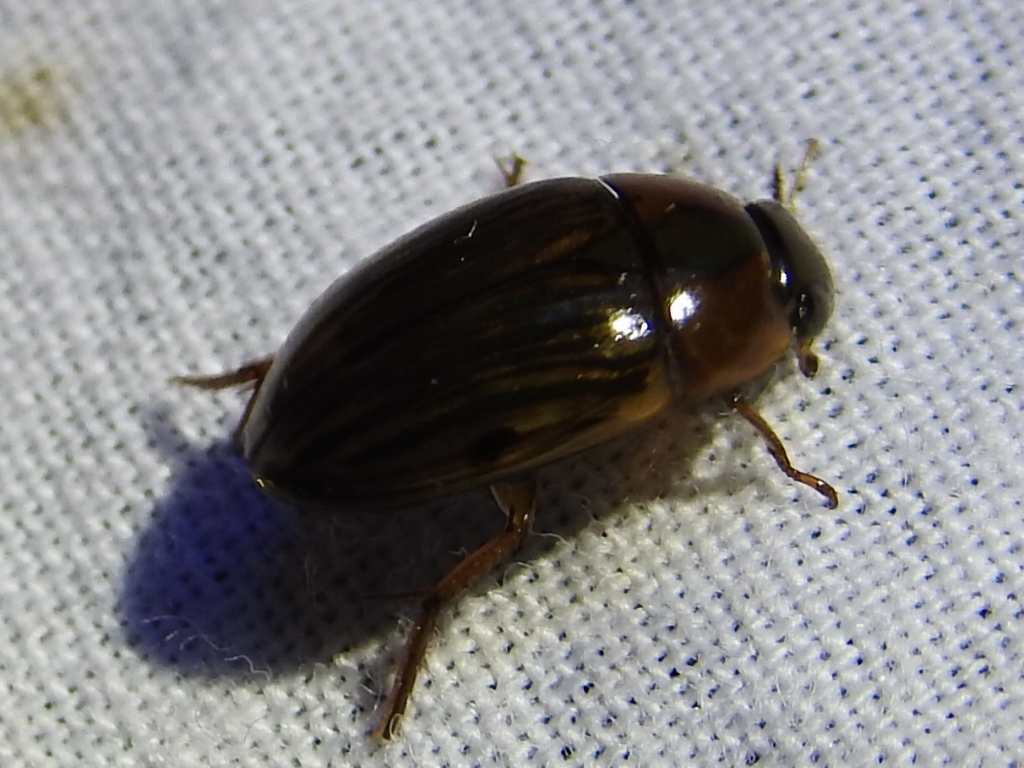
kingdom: Animalia
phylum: Arthropoda
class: Insecta
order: Coleoptera
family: Hydrophilidae
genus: Tropisternus
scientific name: Tropisternus collaris
